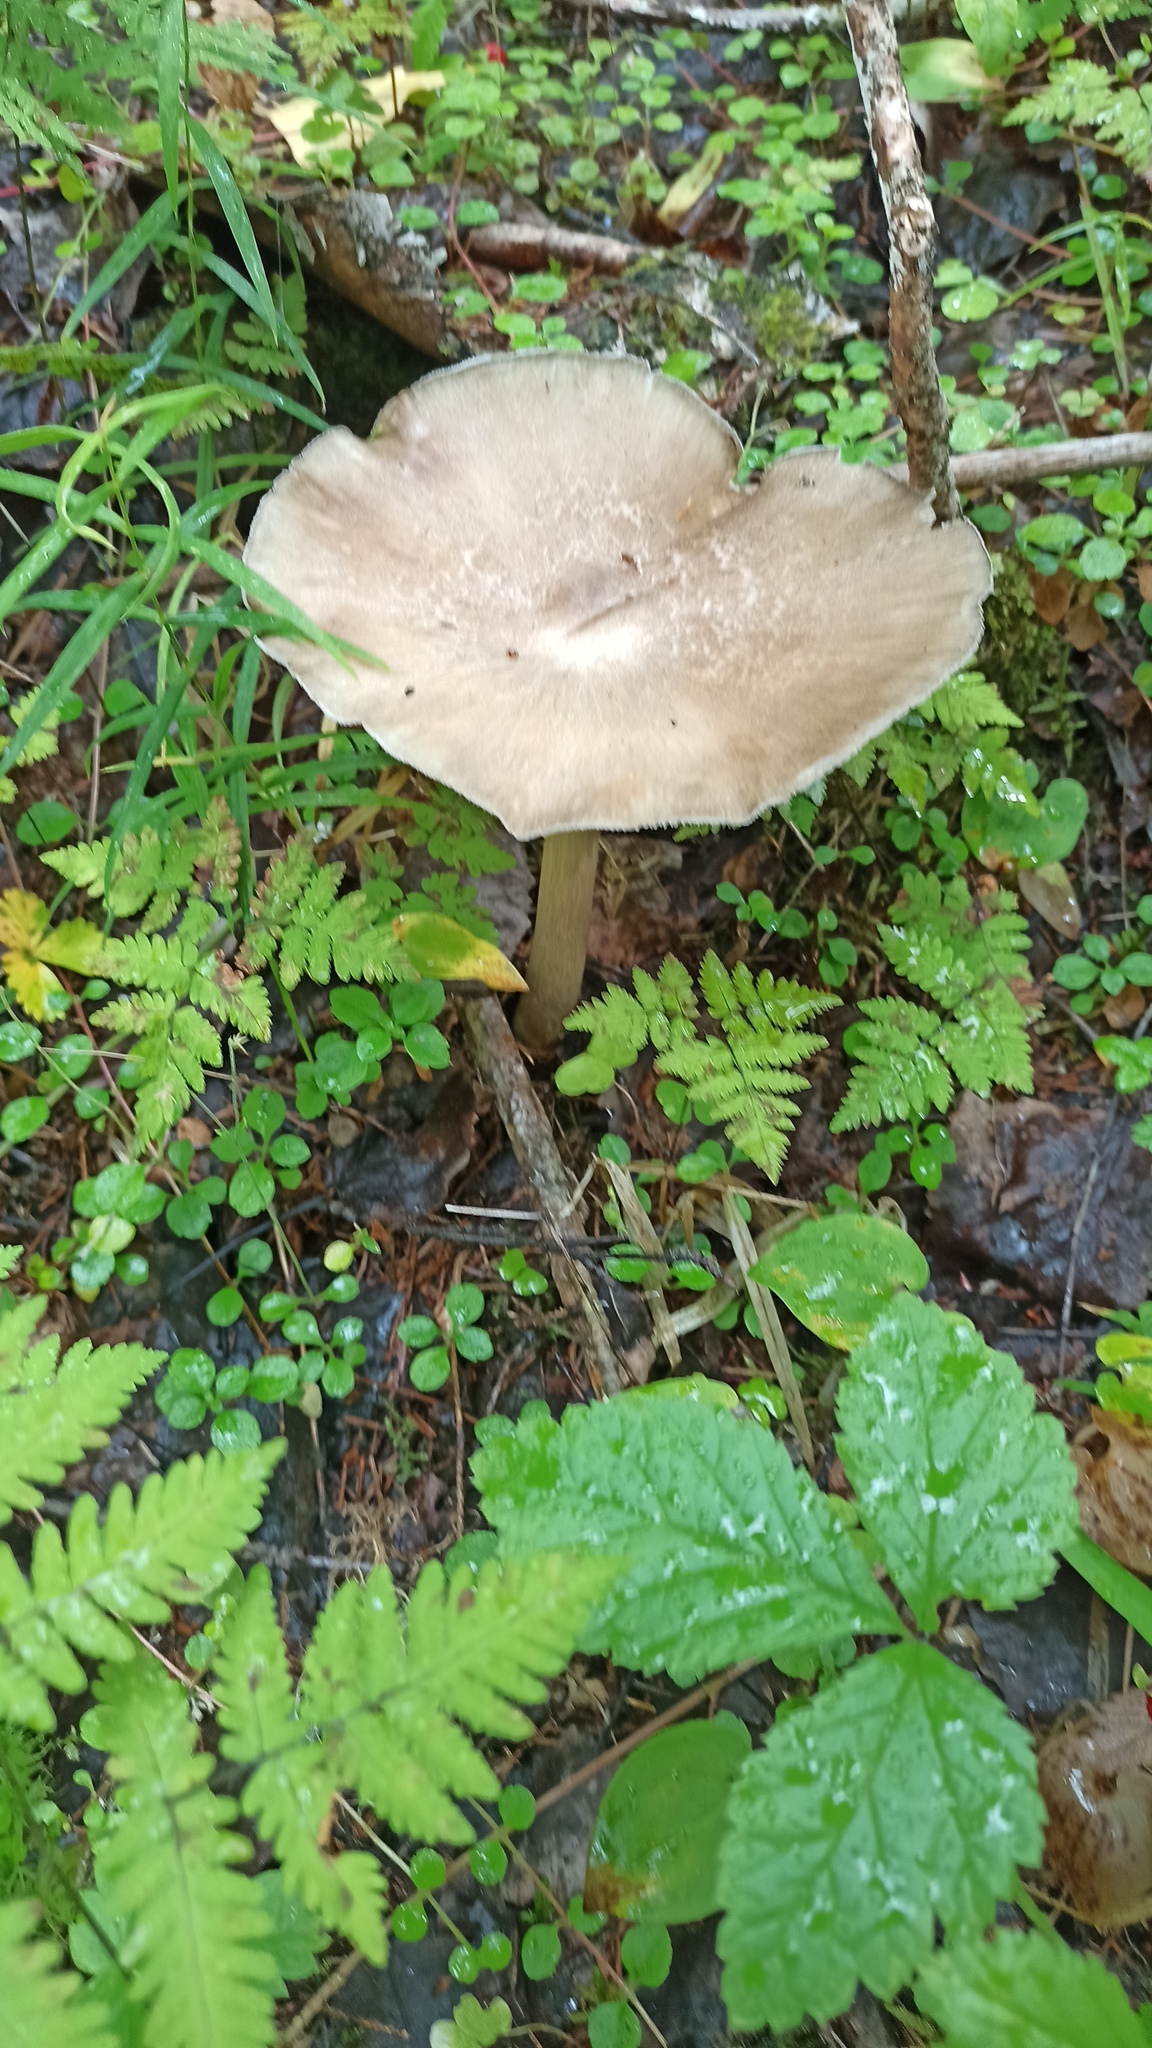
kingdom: Fungi
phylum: Basidiomycota
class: Agaricomycetes
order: Agaricales
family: Tricholomataceae
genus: Megacollybia
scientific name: Megacollybia platyphylla
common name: Whitelaced shank
